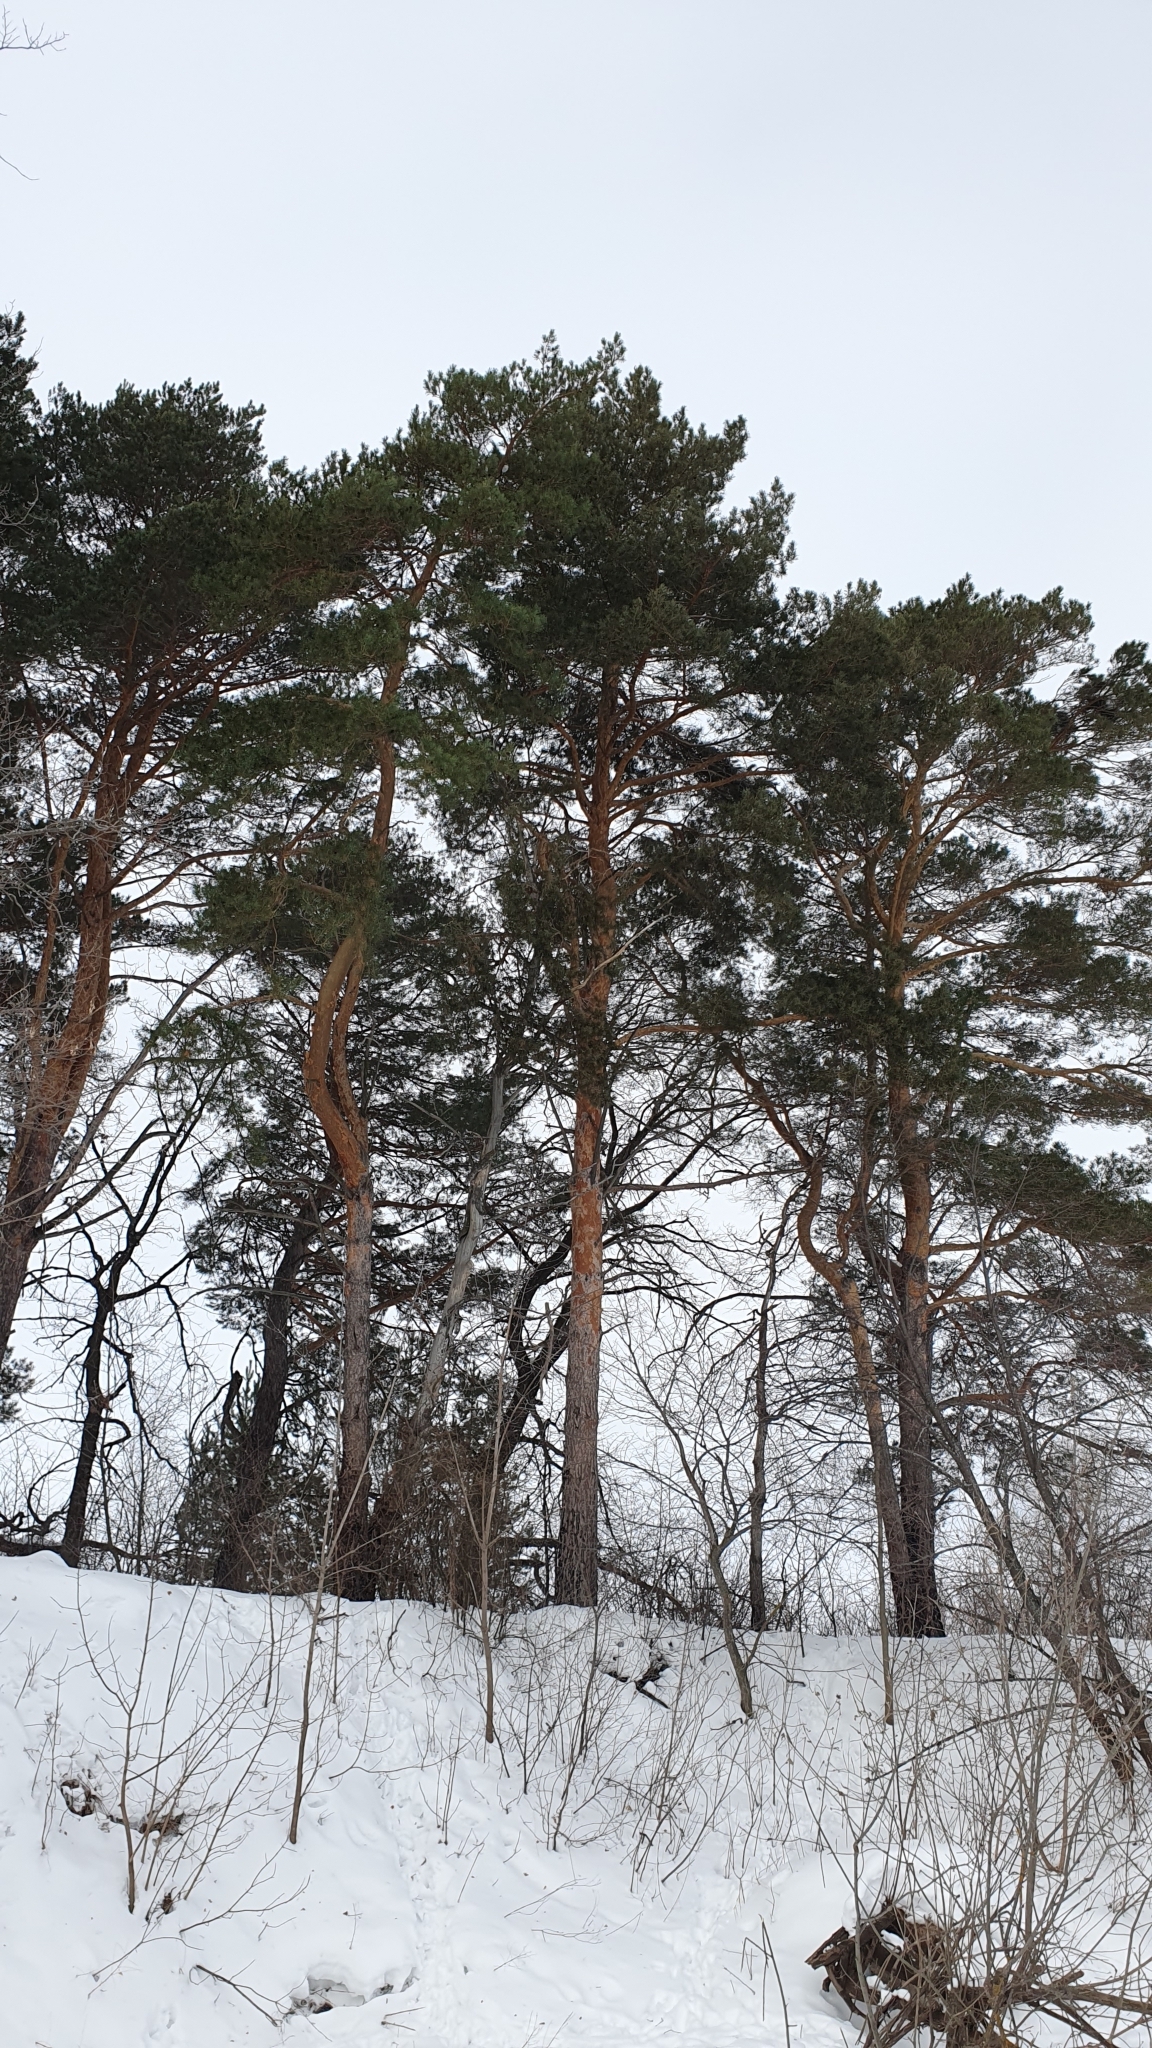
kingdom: Plantae
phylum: Tracheophyta
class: Pinopsida
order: Pinales
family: Pinaceae
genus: Pinus
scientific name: Pinus sylvestris
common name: Scots pine
